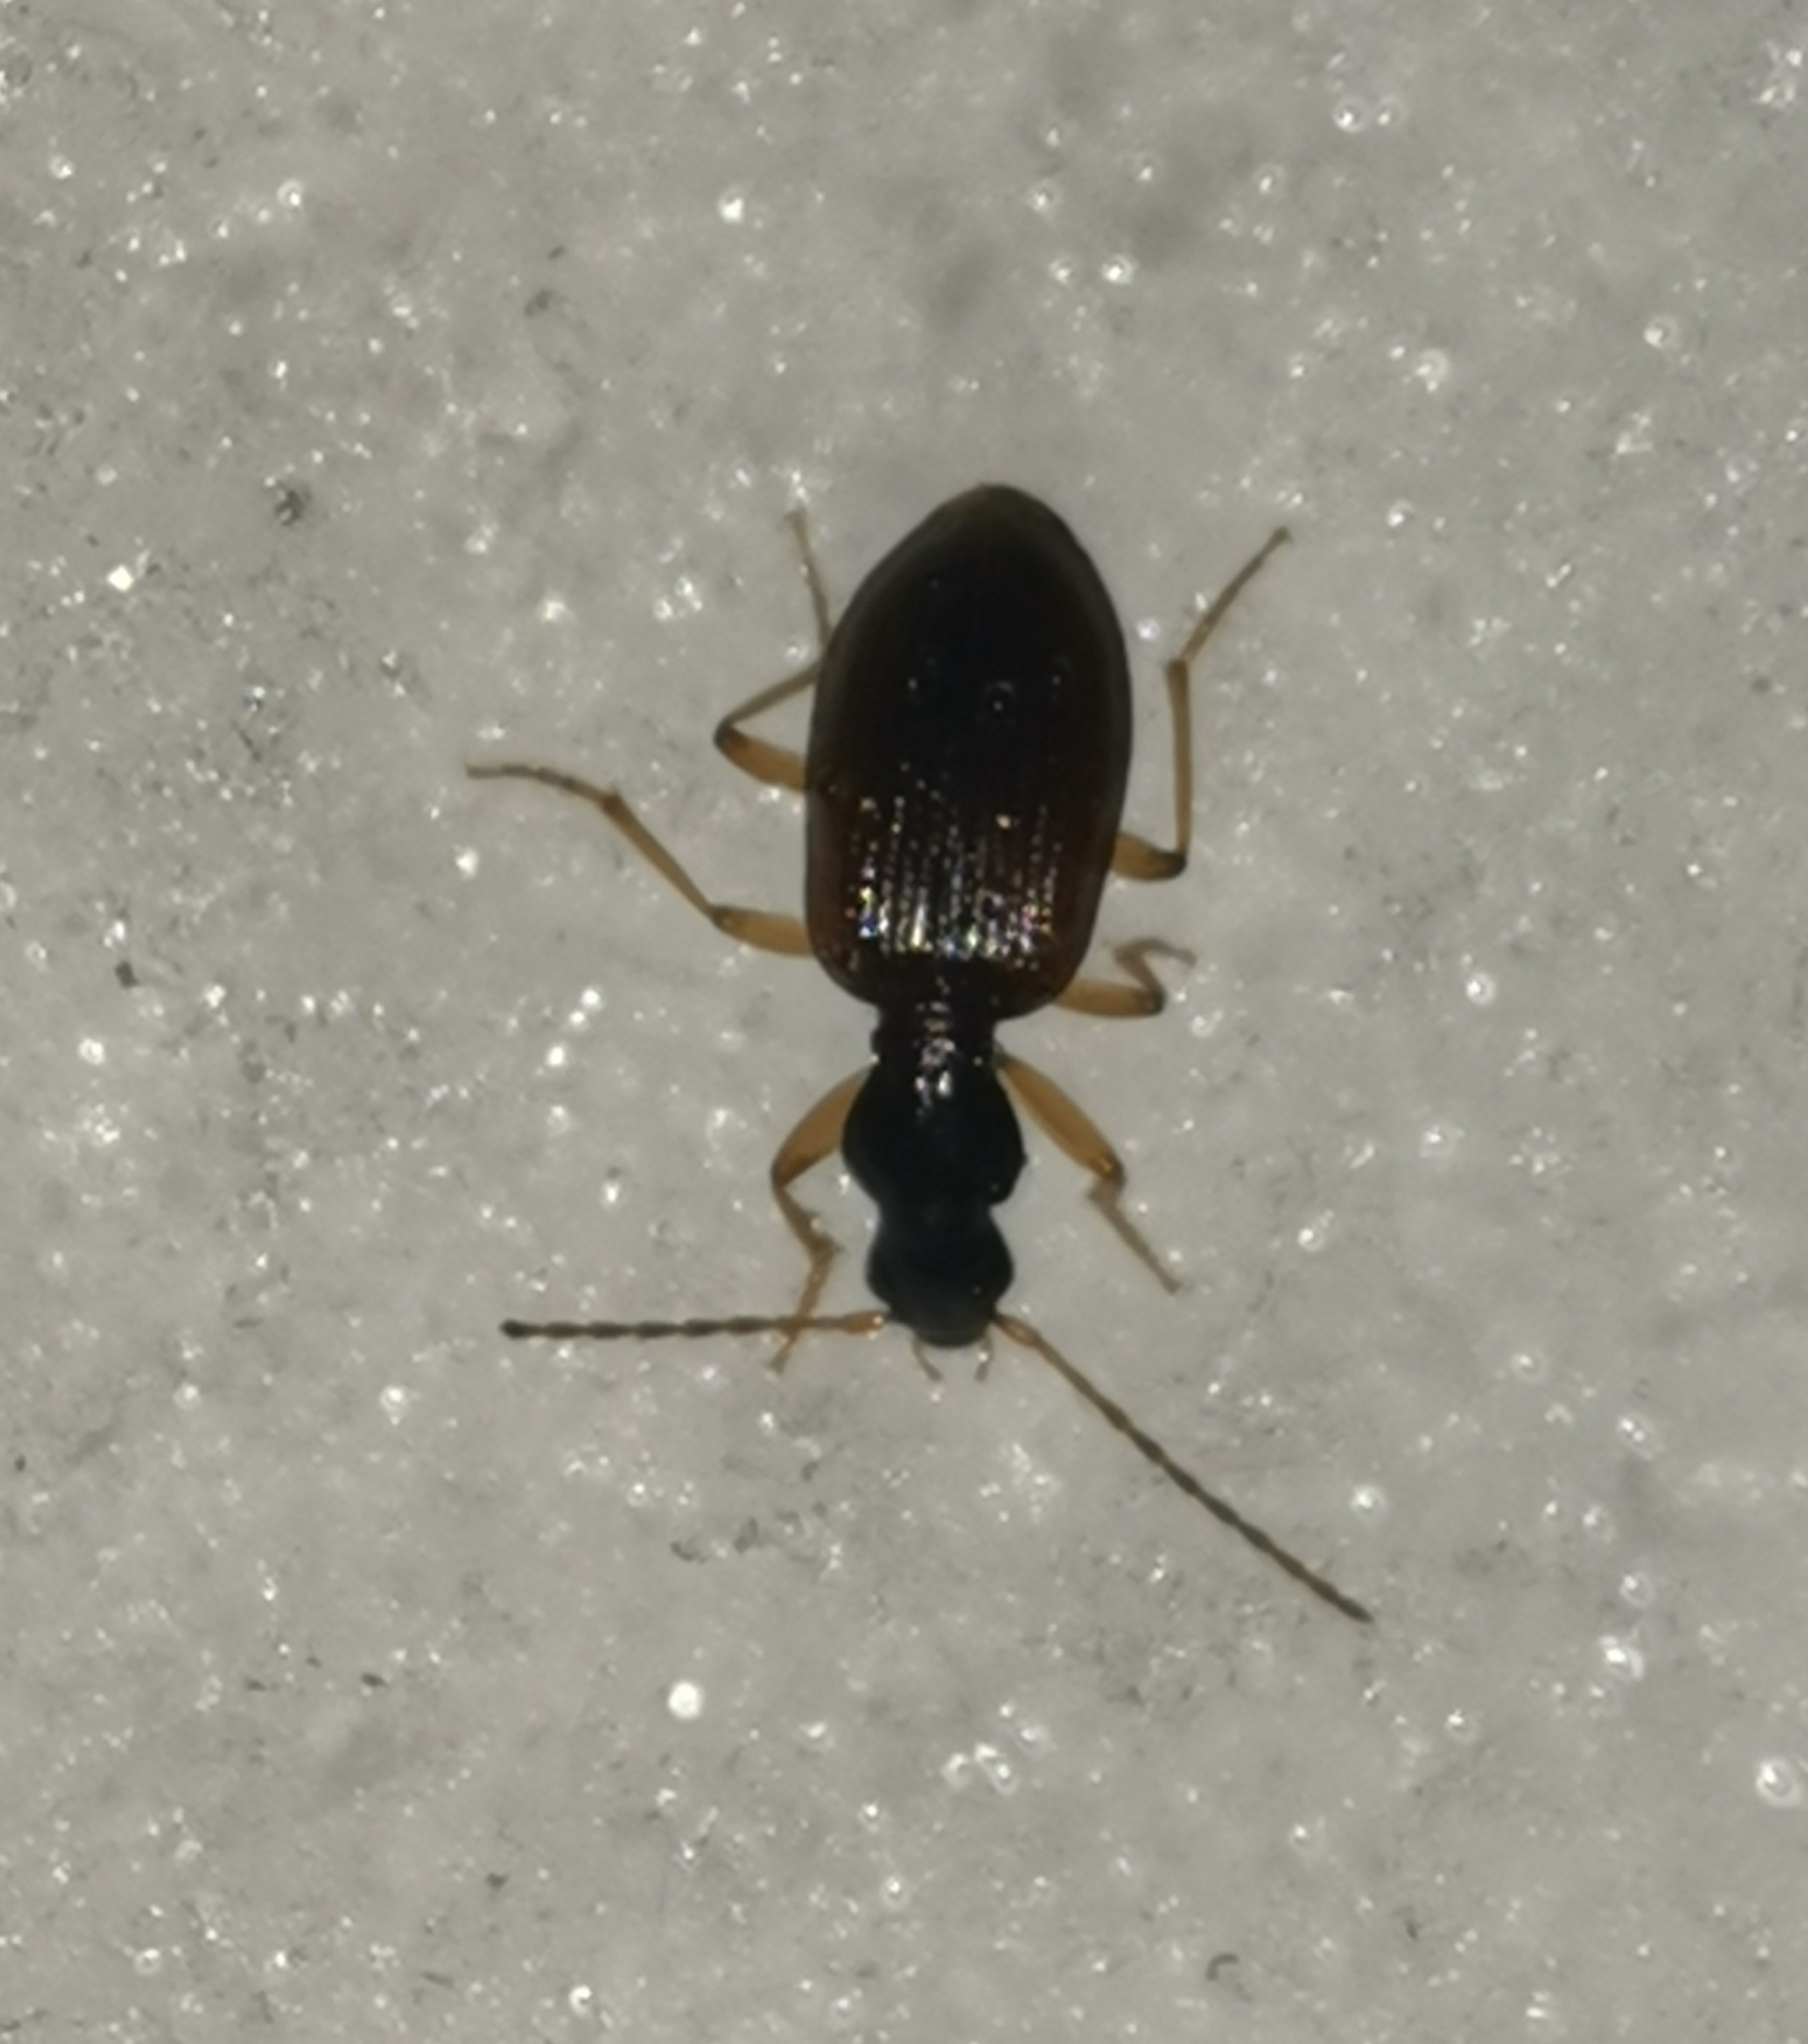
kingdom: Animalia
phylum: Arthropoda
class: Insecta
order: Coleoptera
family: Carabidae
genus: Oxypselaphus
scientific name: Oxypselaphus obscurus
